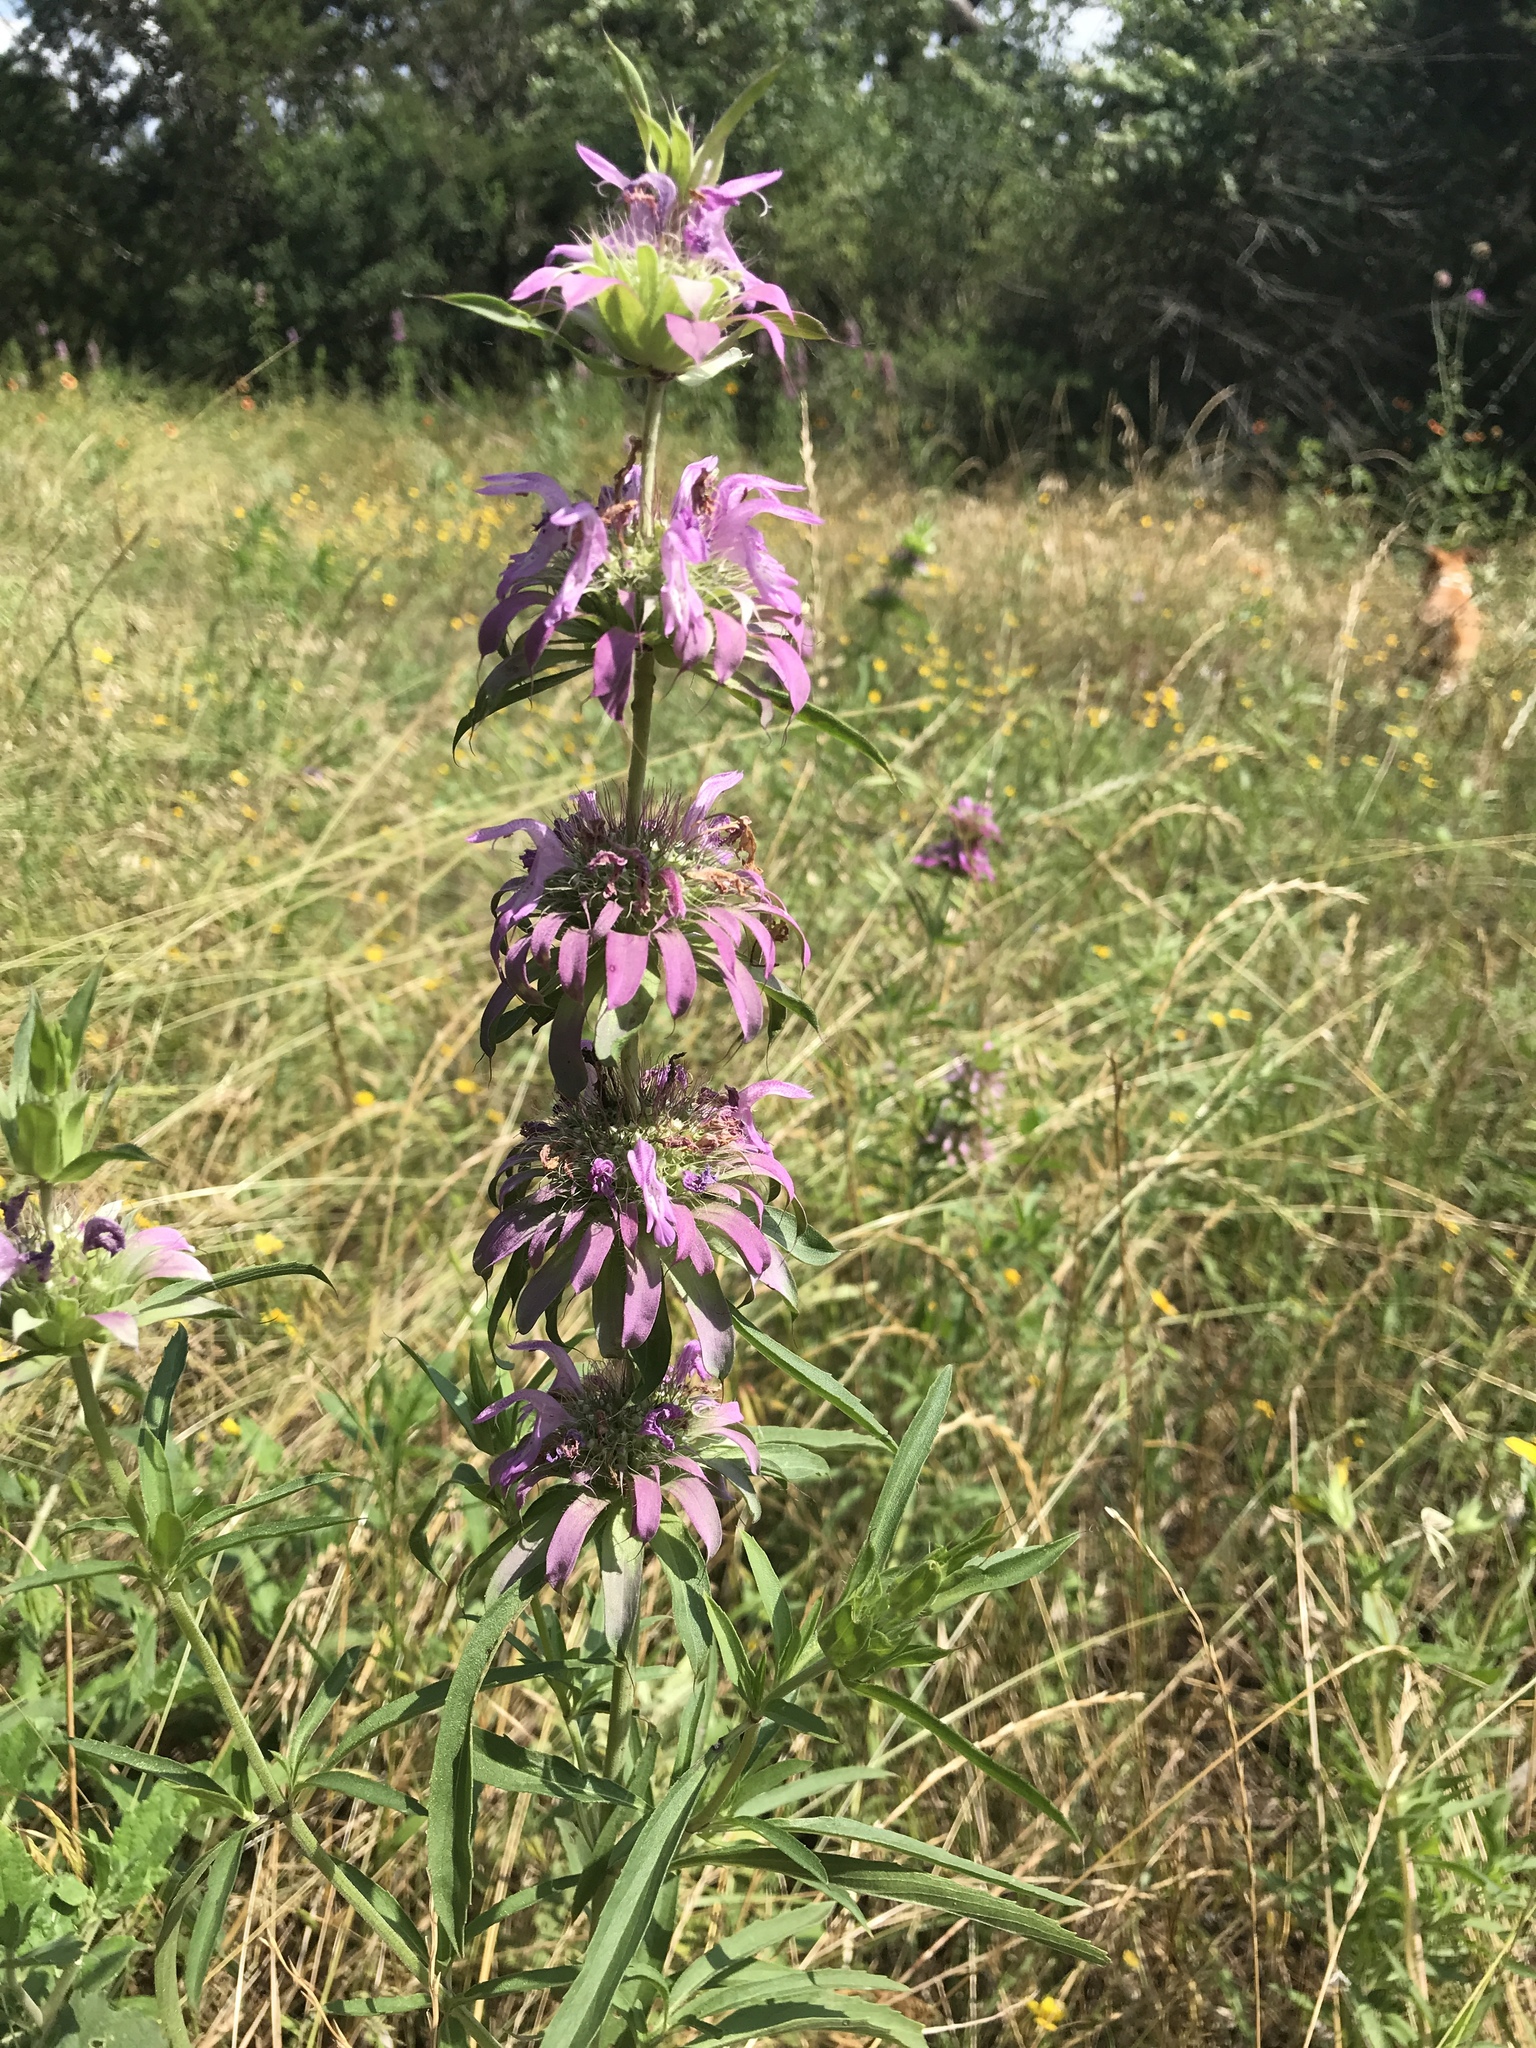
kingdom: Plantae
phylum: Tracheophyta
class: Magnoliopsida
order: Lamiales
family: Lamiaceae
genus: Monarda
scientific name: Monarda citriodora
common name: Lemon beebalm
